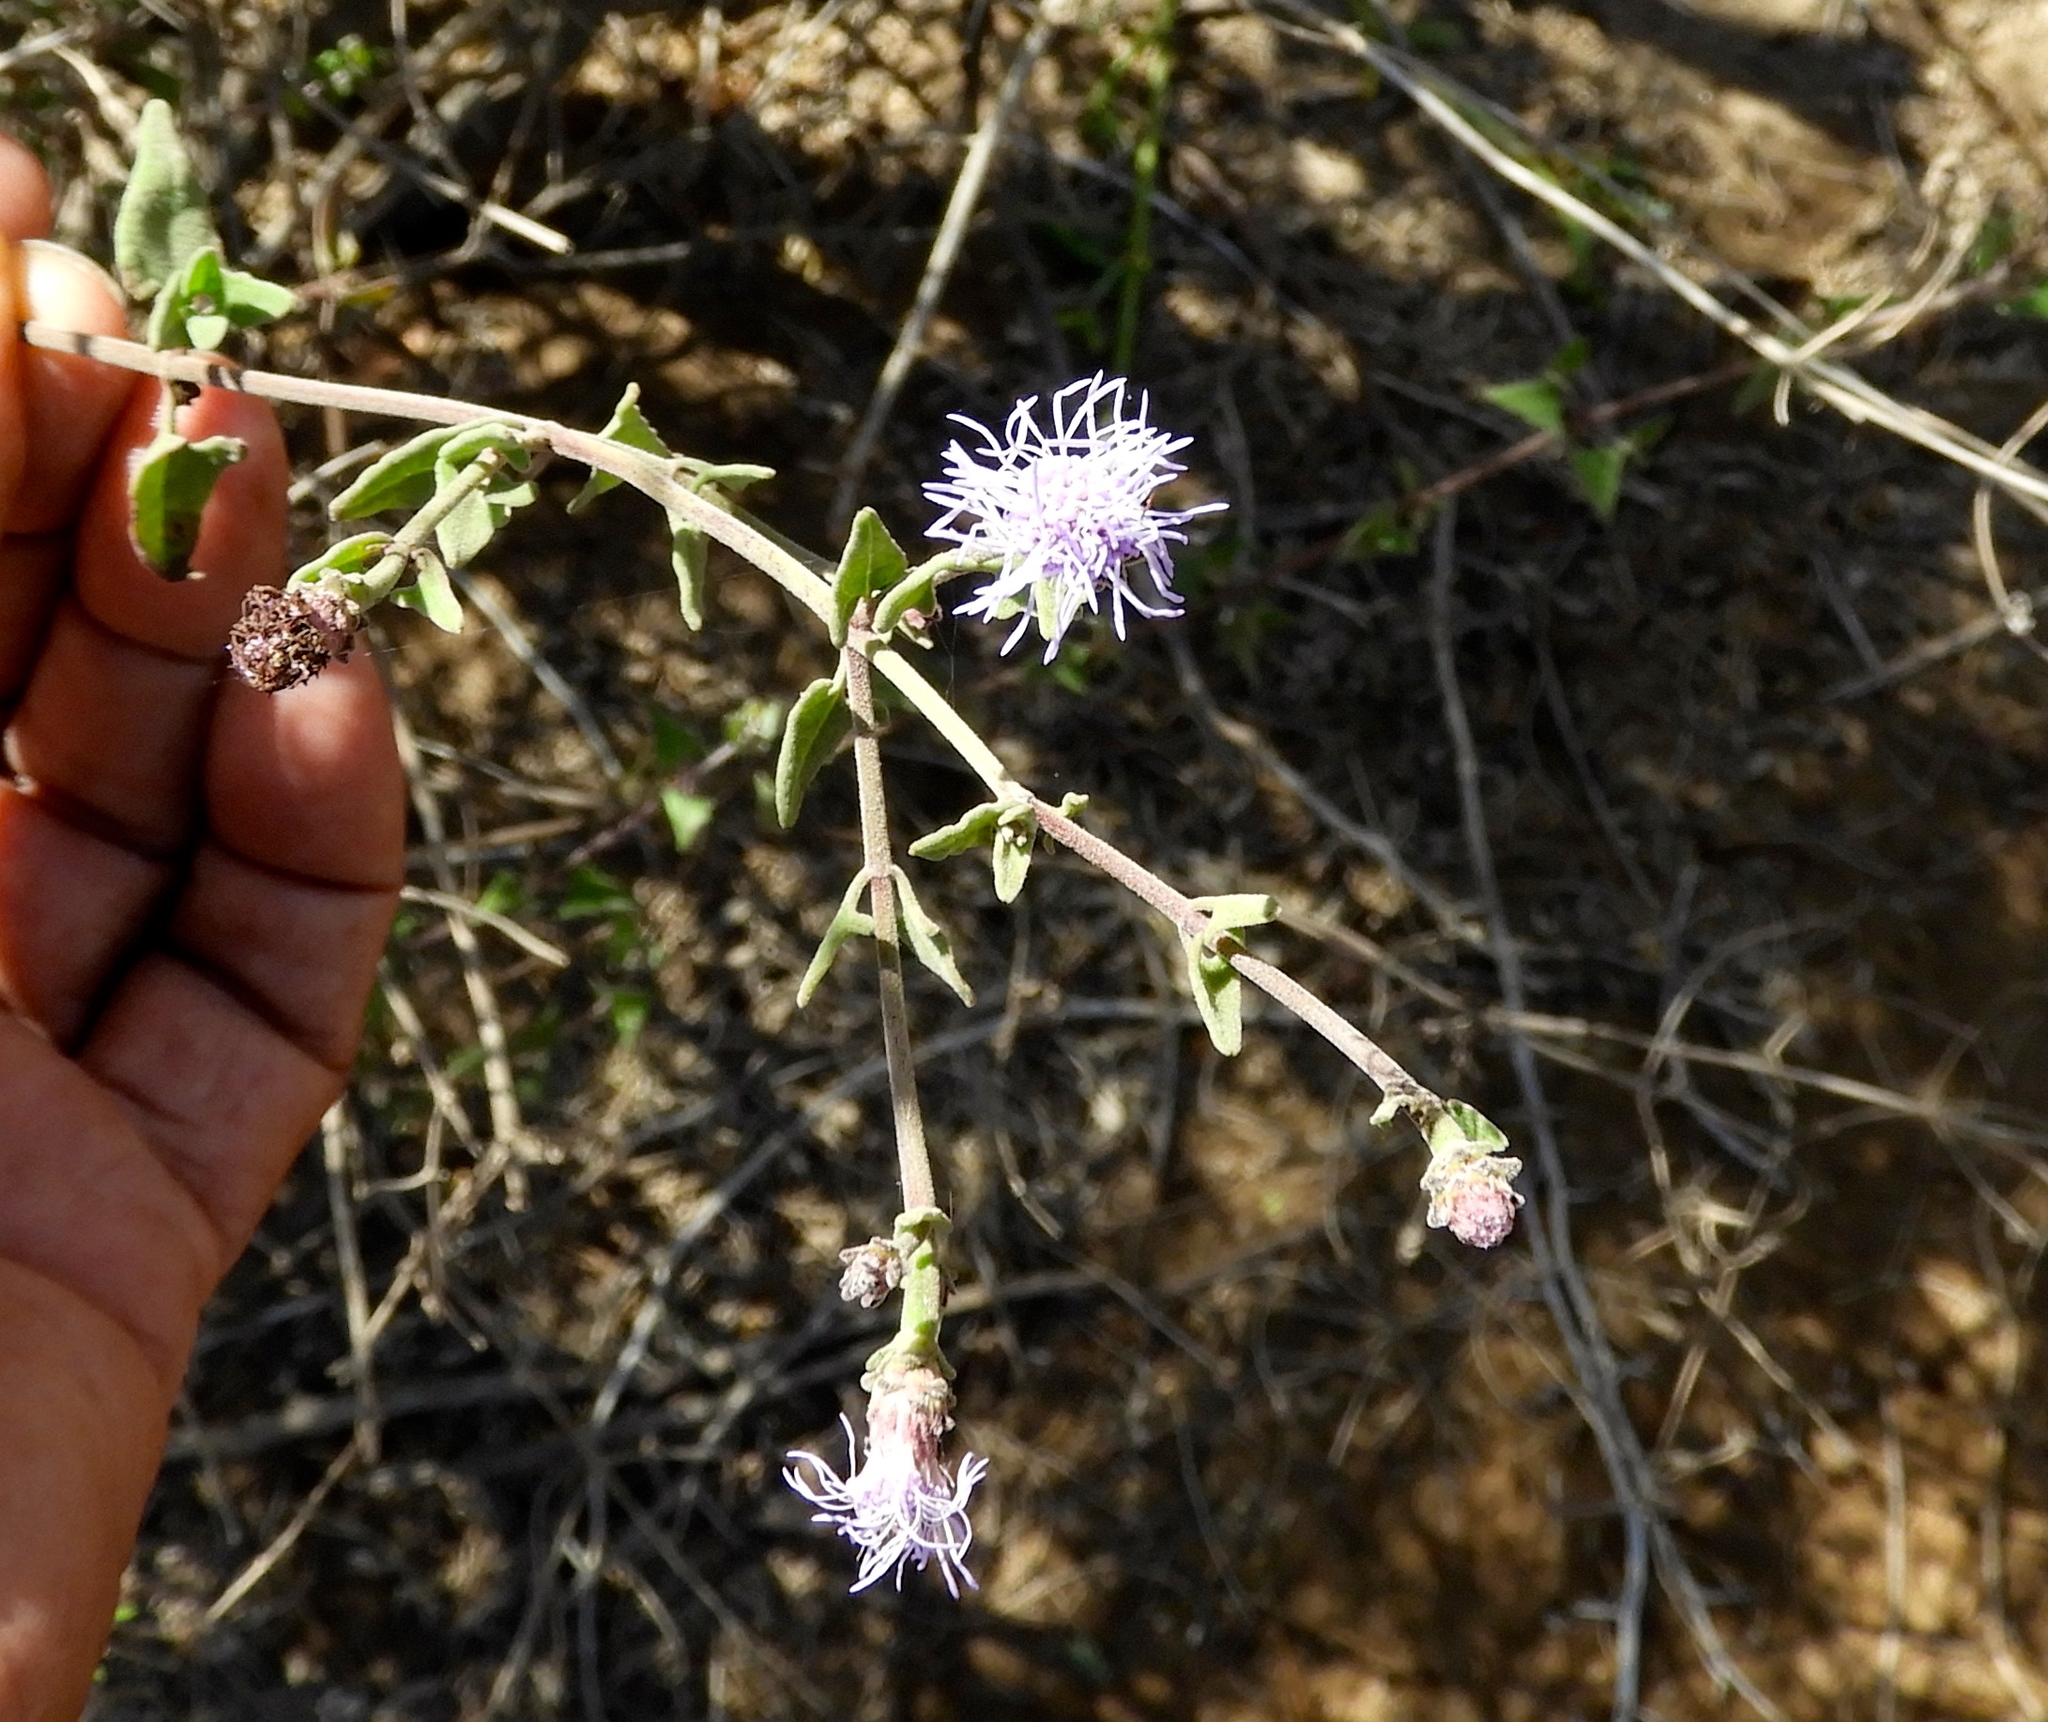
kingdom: Plantae
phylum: Tracheophyta
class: Magnoliopsida
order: Asterales
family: Asteraceae
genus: Chromolaena
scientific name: Chromolaena sagittata
